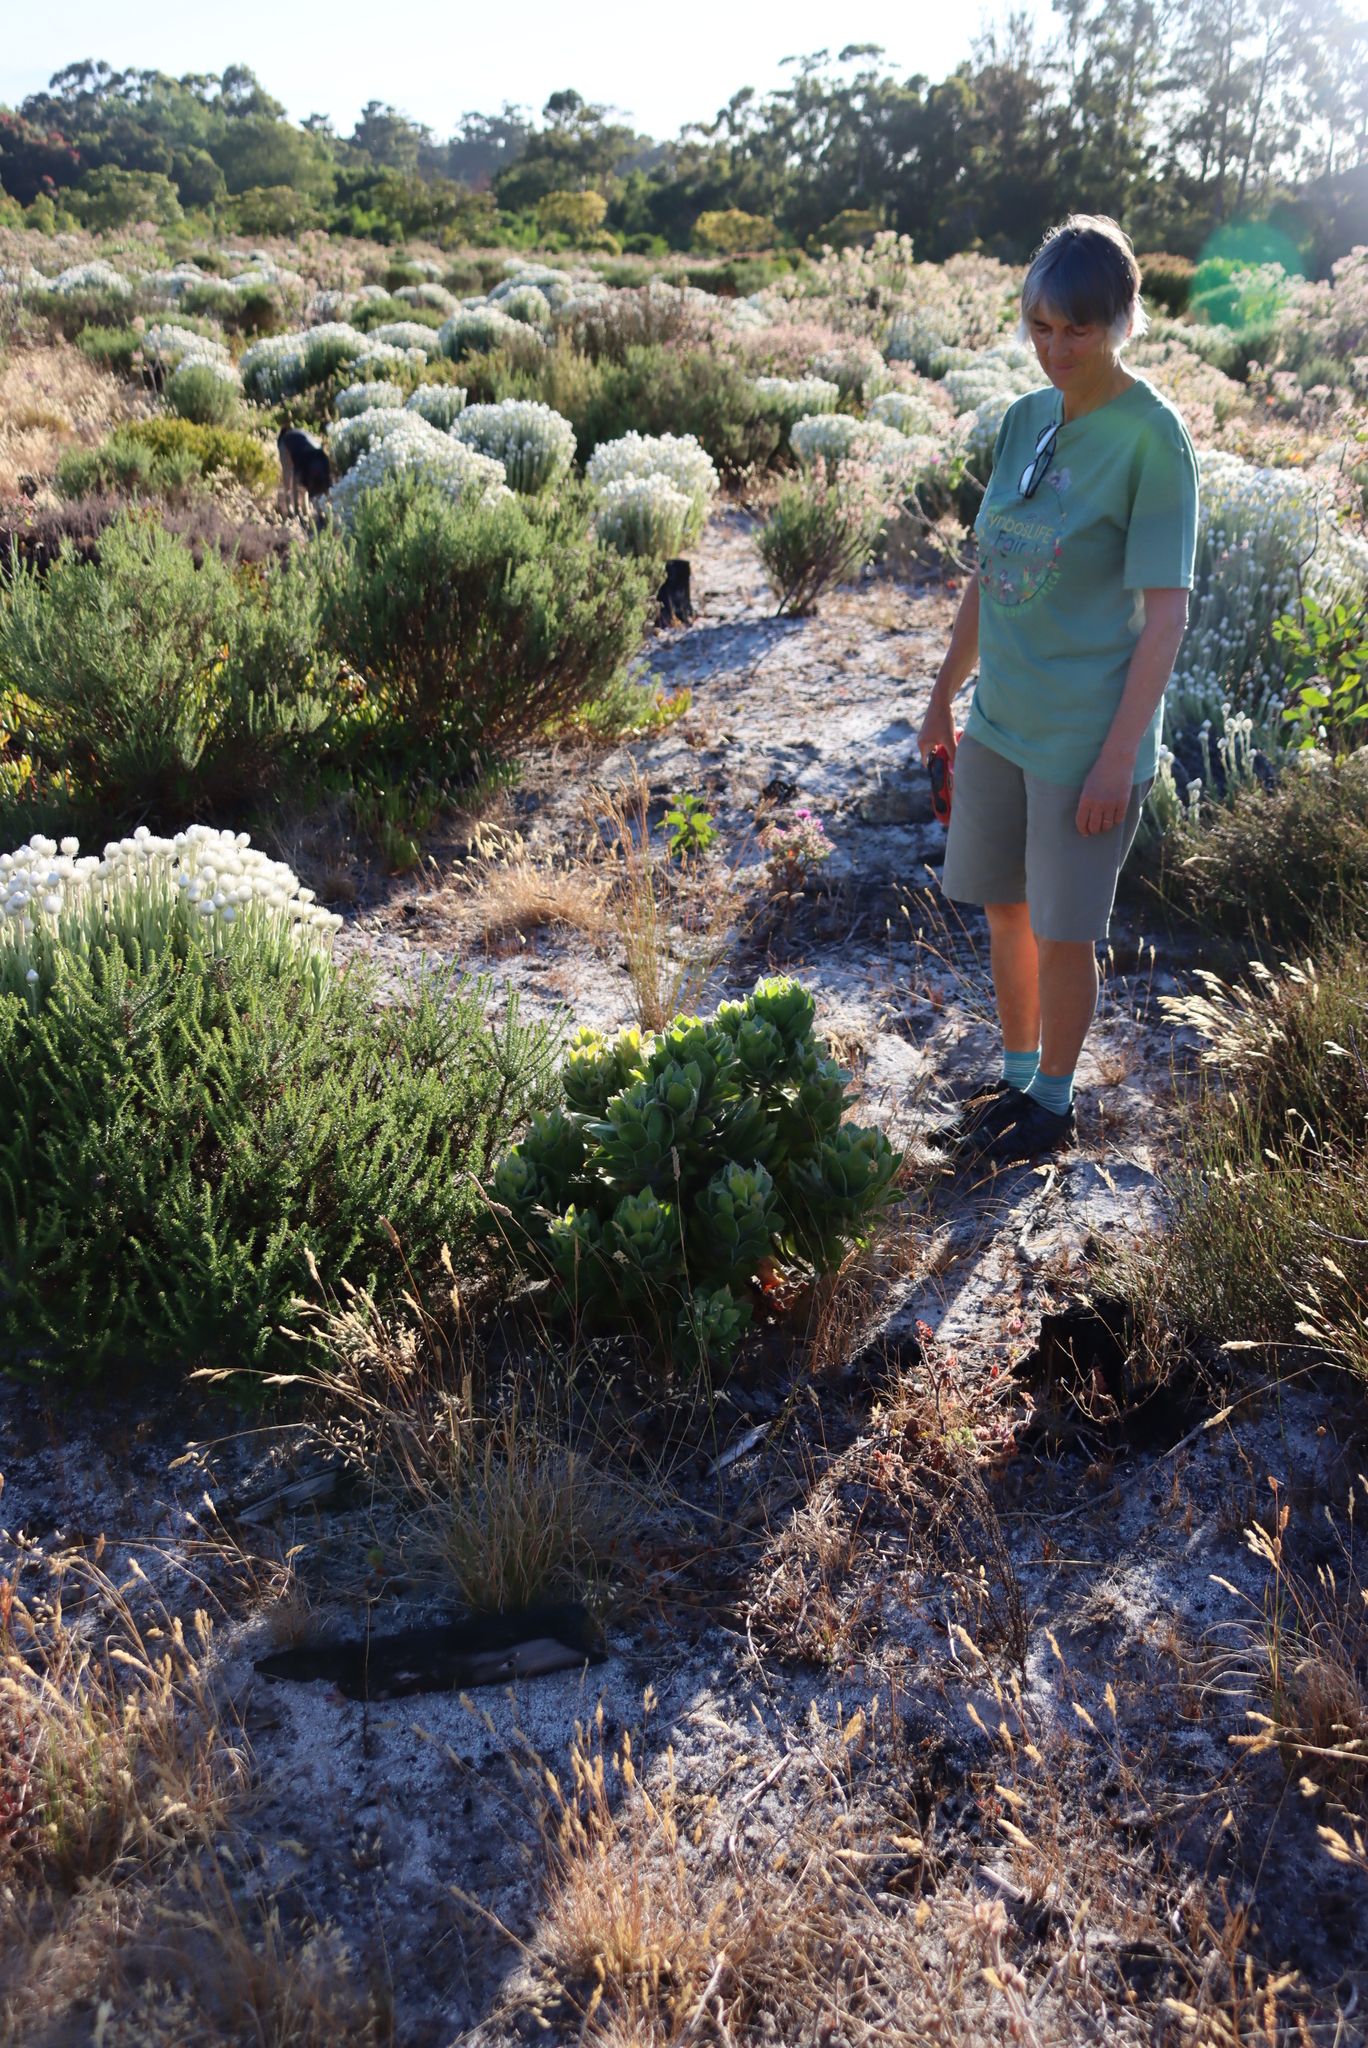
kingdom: Plantae
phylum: Tracheophyta
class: Magnoliopsida
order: Proteales
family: Proteaceae
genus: Leucospermum
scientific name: Leucospermum conocarpodendron
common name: Tree pincushion
